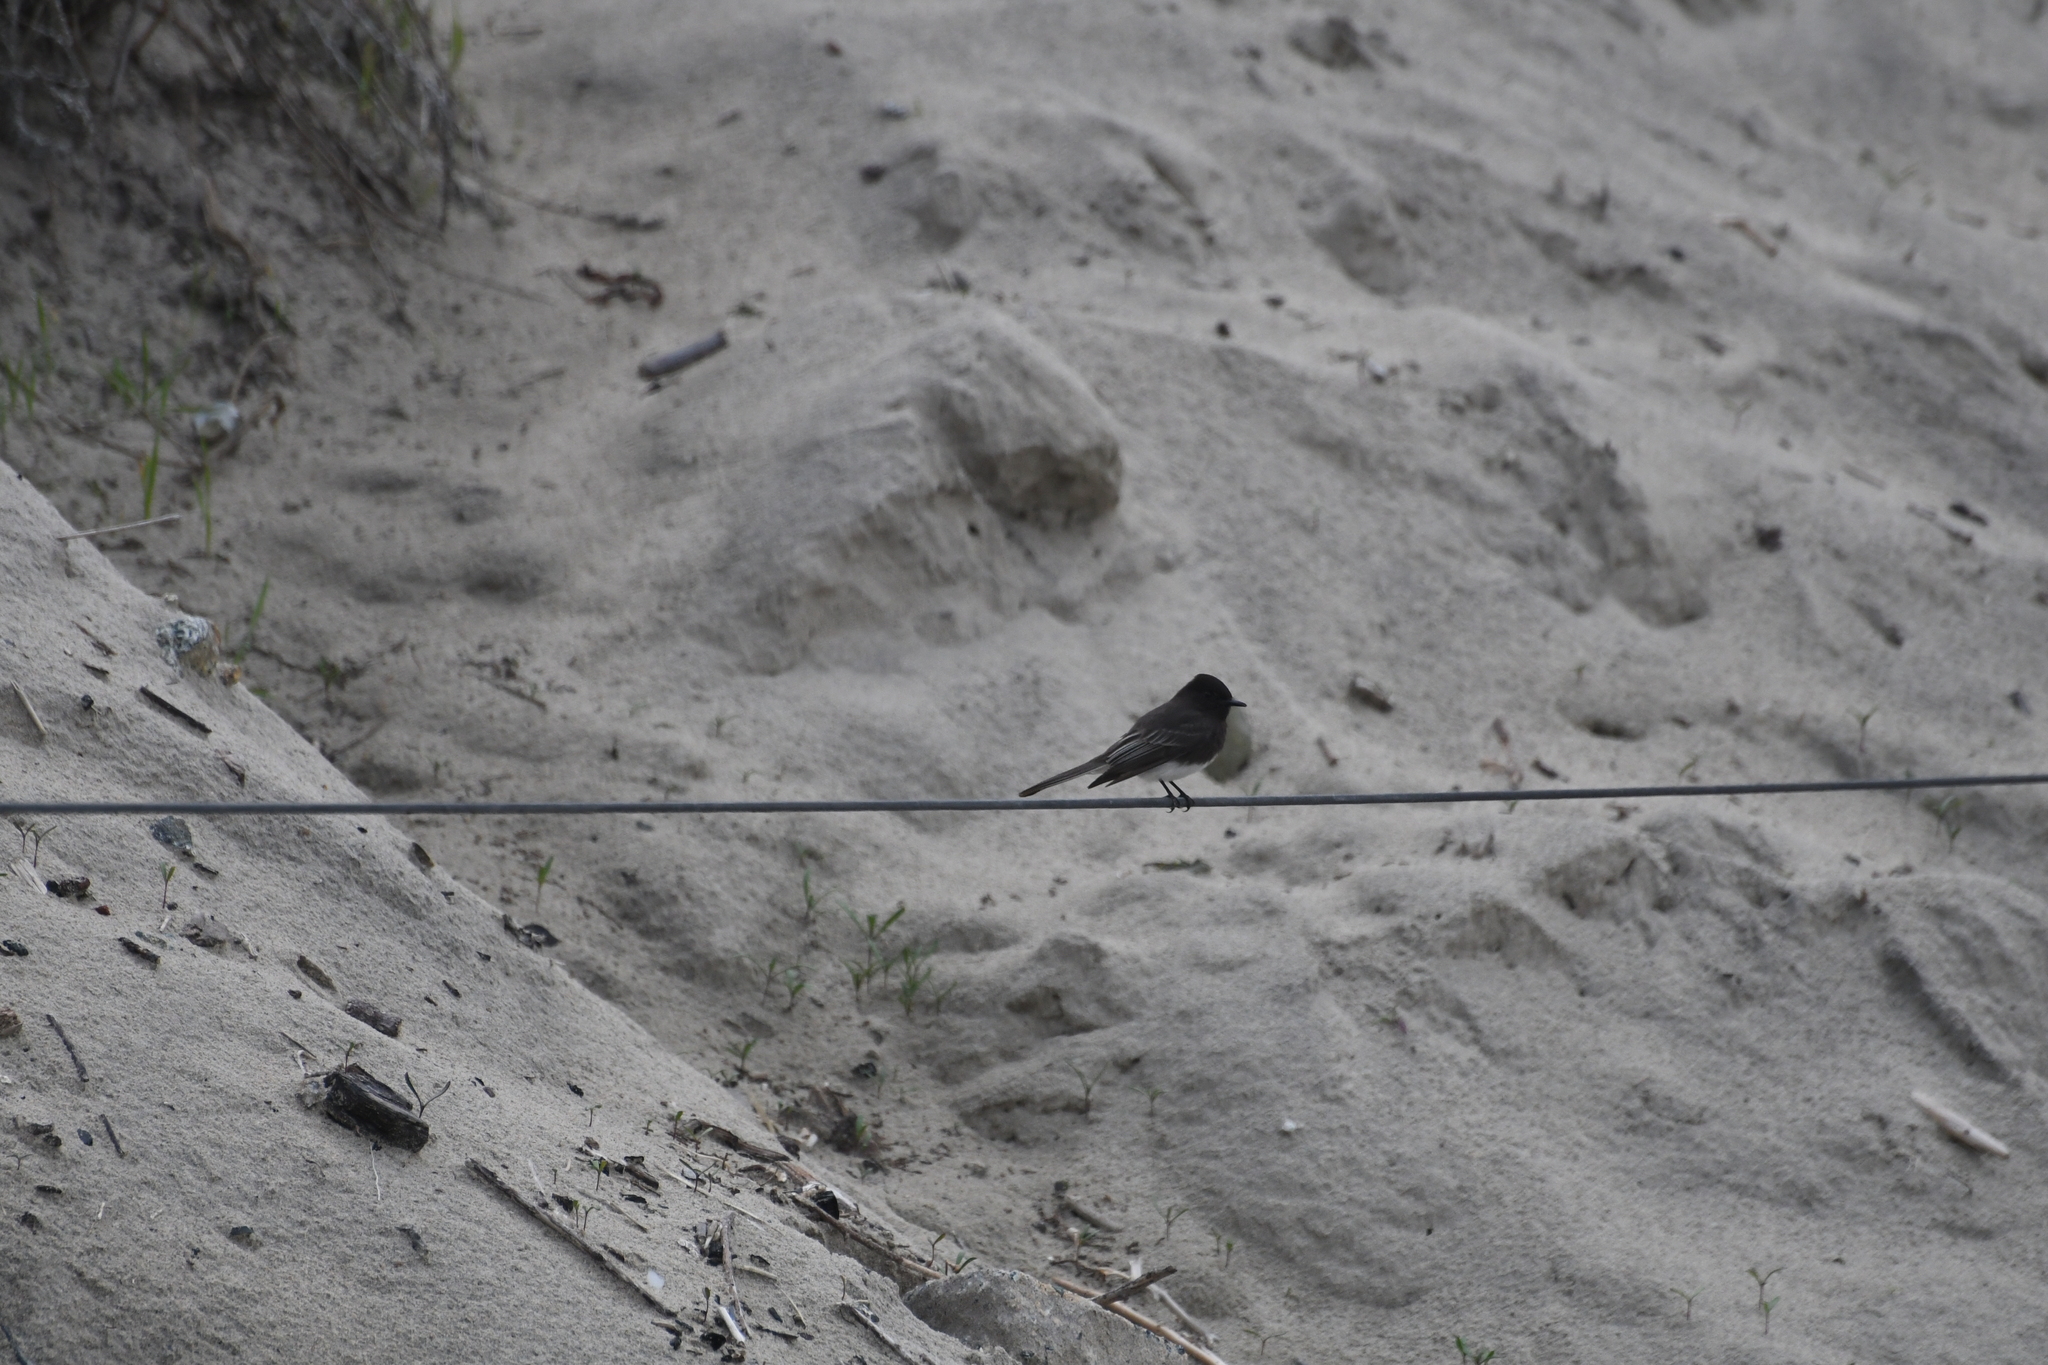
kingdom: Animalia
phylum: Chordata
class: Aves
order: Passeriformes
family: Tyrannidae
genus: Sayornis
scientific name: Sayornis nigricans
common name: Black phoebe
